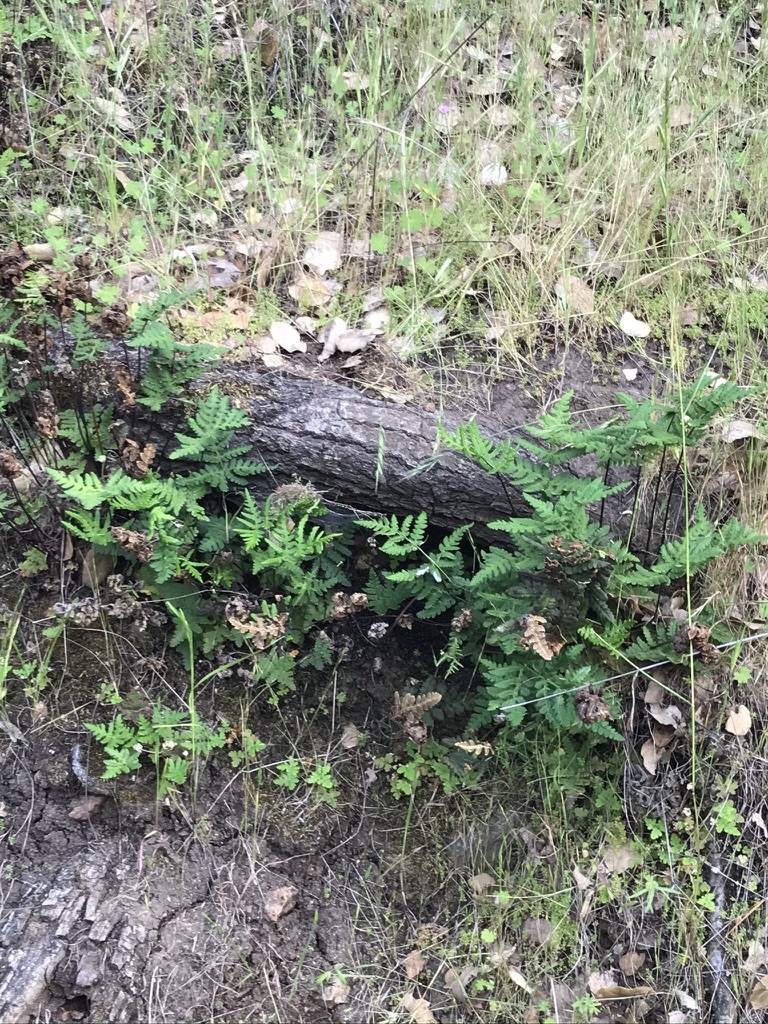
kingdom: Plantae
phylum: Tracheophyta
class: Polypodiopsida
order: Polypodiales
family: Pteridaceae
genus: Pentagramma
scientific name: Pentagramma triangularis
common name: Gold fern
